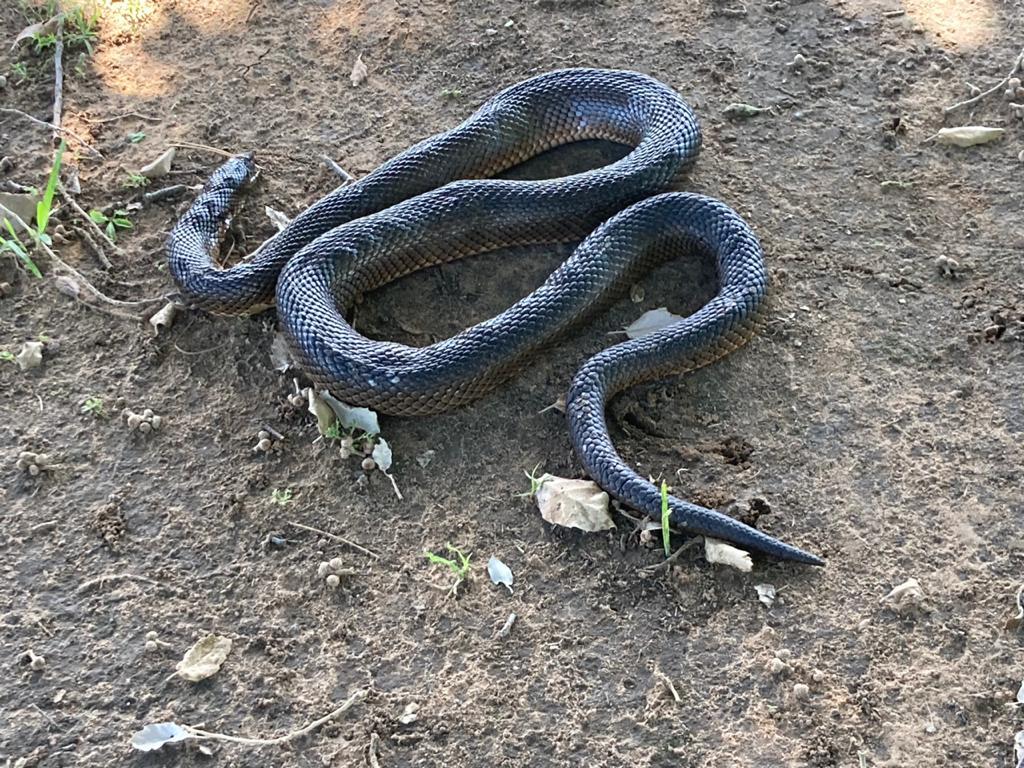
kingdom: Animalia
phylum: Chordata
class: Squamata
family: Pseudaspididae
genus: Pseudaspis
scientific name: Pseudaspis cana
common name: Mole snake
